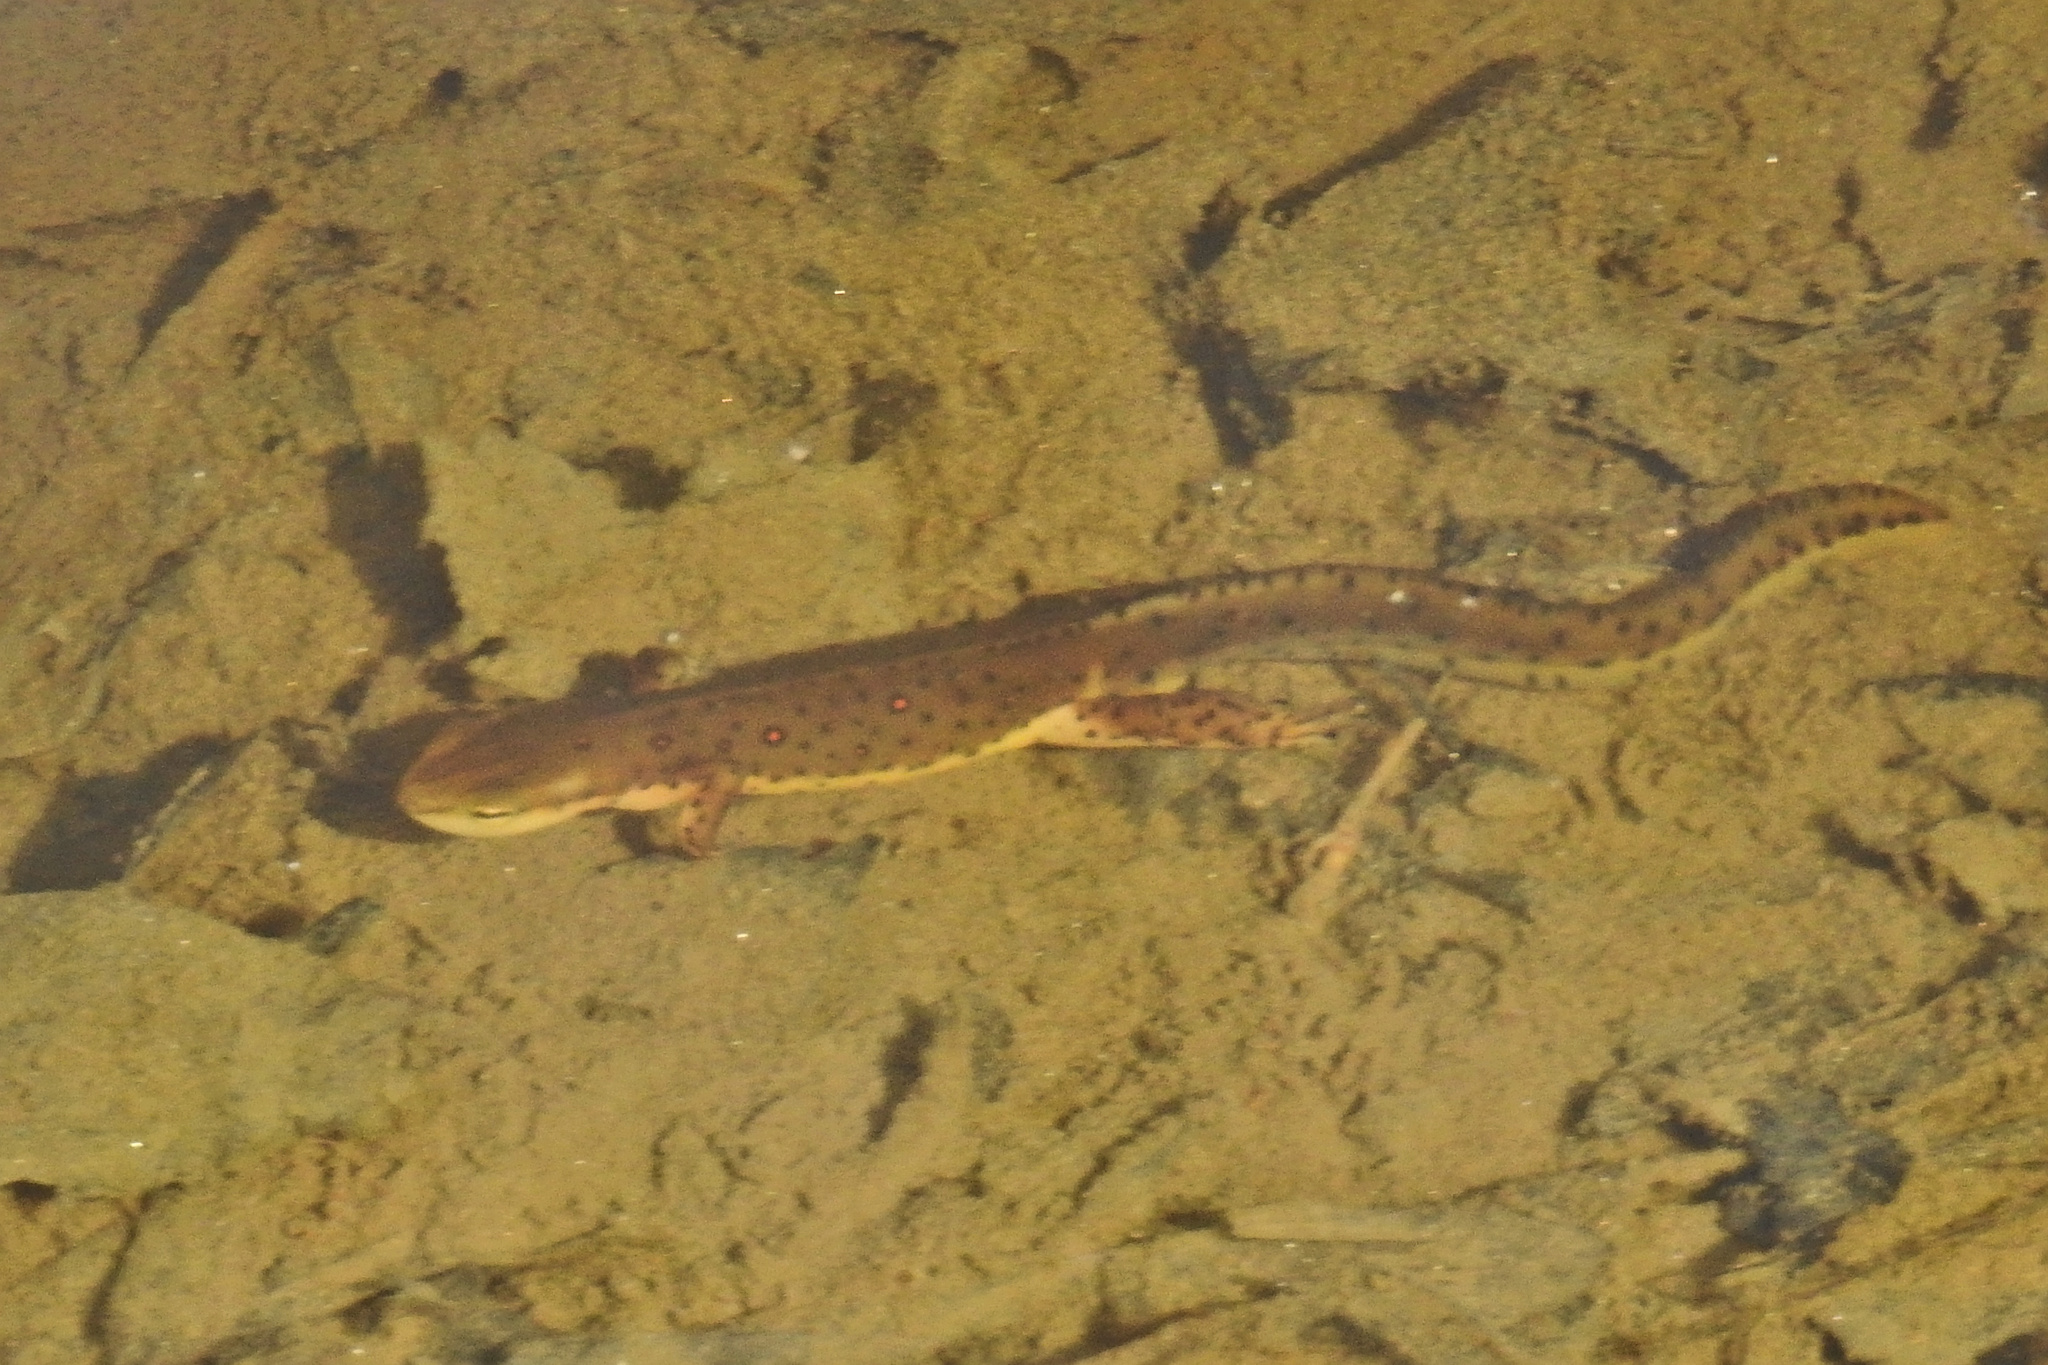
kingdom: Animalia
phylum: Chordata
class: Amphibia
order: Caudata
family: Salamandridae
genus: Notophthalmus
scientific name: Notophthalmus viridescens
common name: Eastern newt
